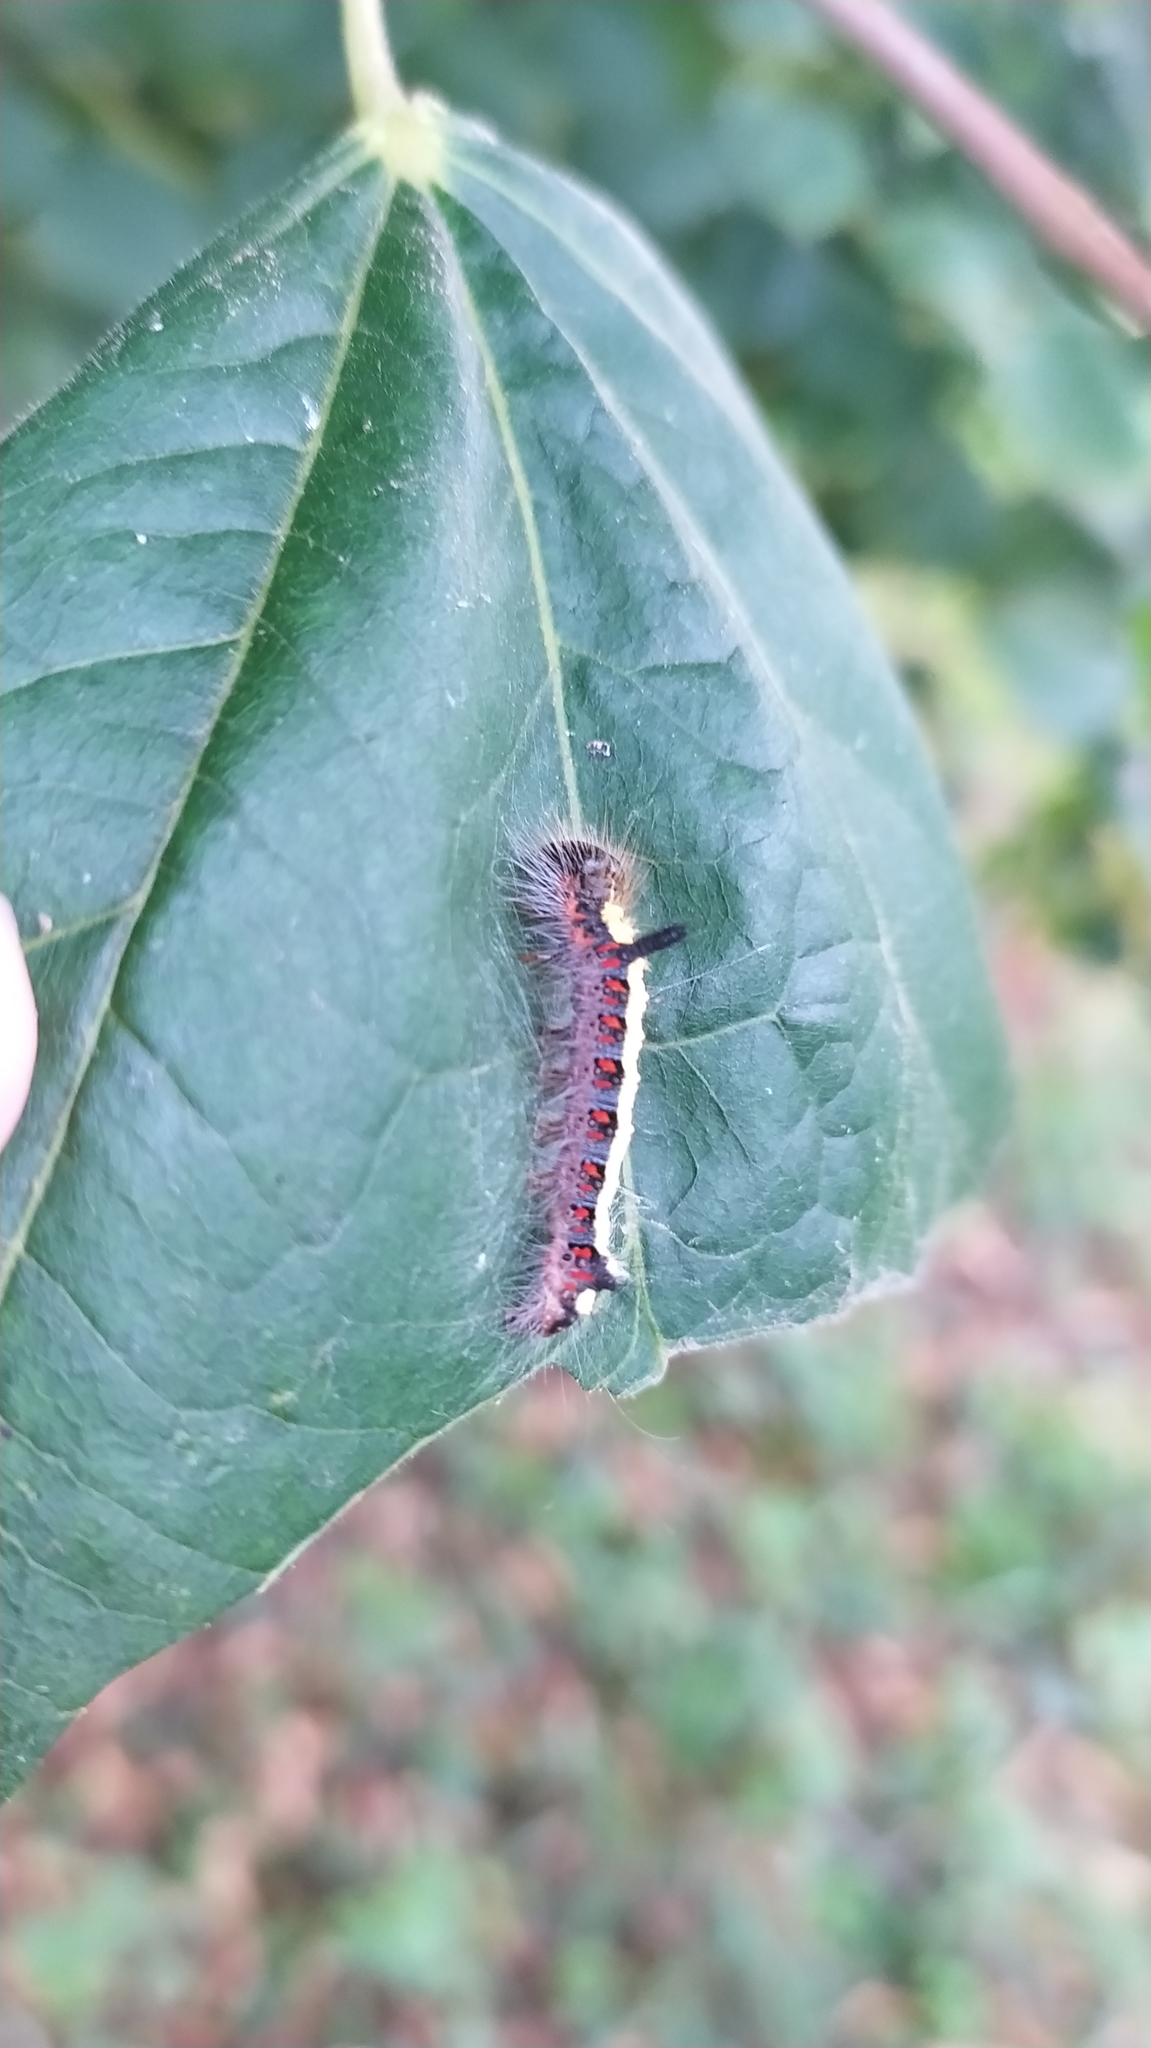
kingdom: Animalia
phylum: Arthropoda
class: Insecta
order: Lepidoptera
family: Noctuidae
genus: Acronicta
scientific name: Acronicta psi
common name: Grey dagger
